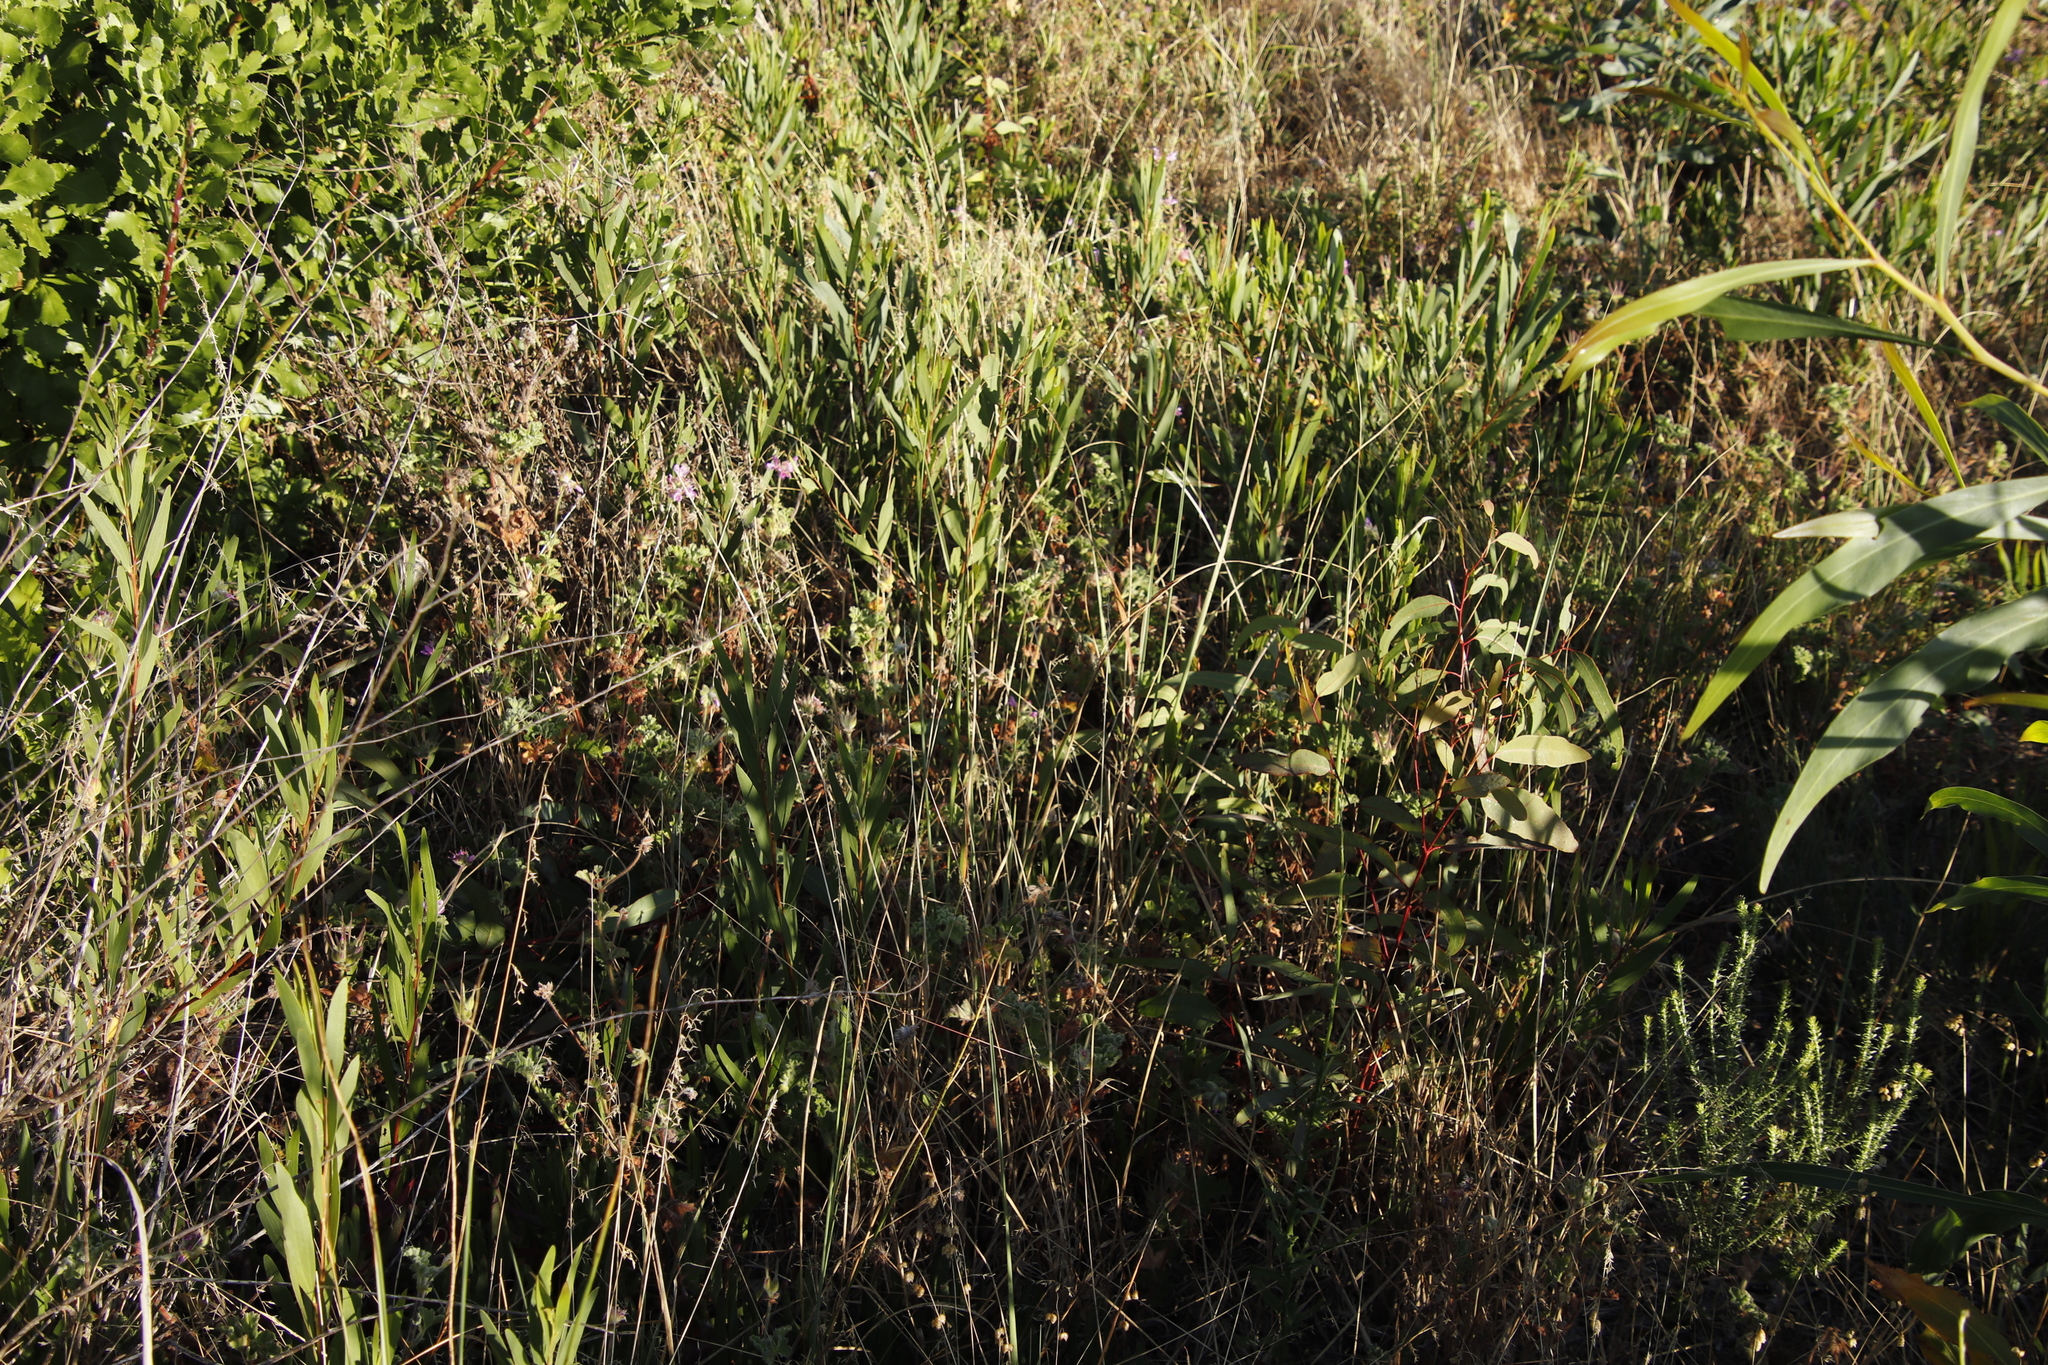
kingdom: Plantae
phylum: Tracheophyta
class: Magnoliopsida
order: Fabales
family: Fabaceae
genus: Acacia
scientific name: Acacia longifolia
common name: Sydney golden wattle
